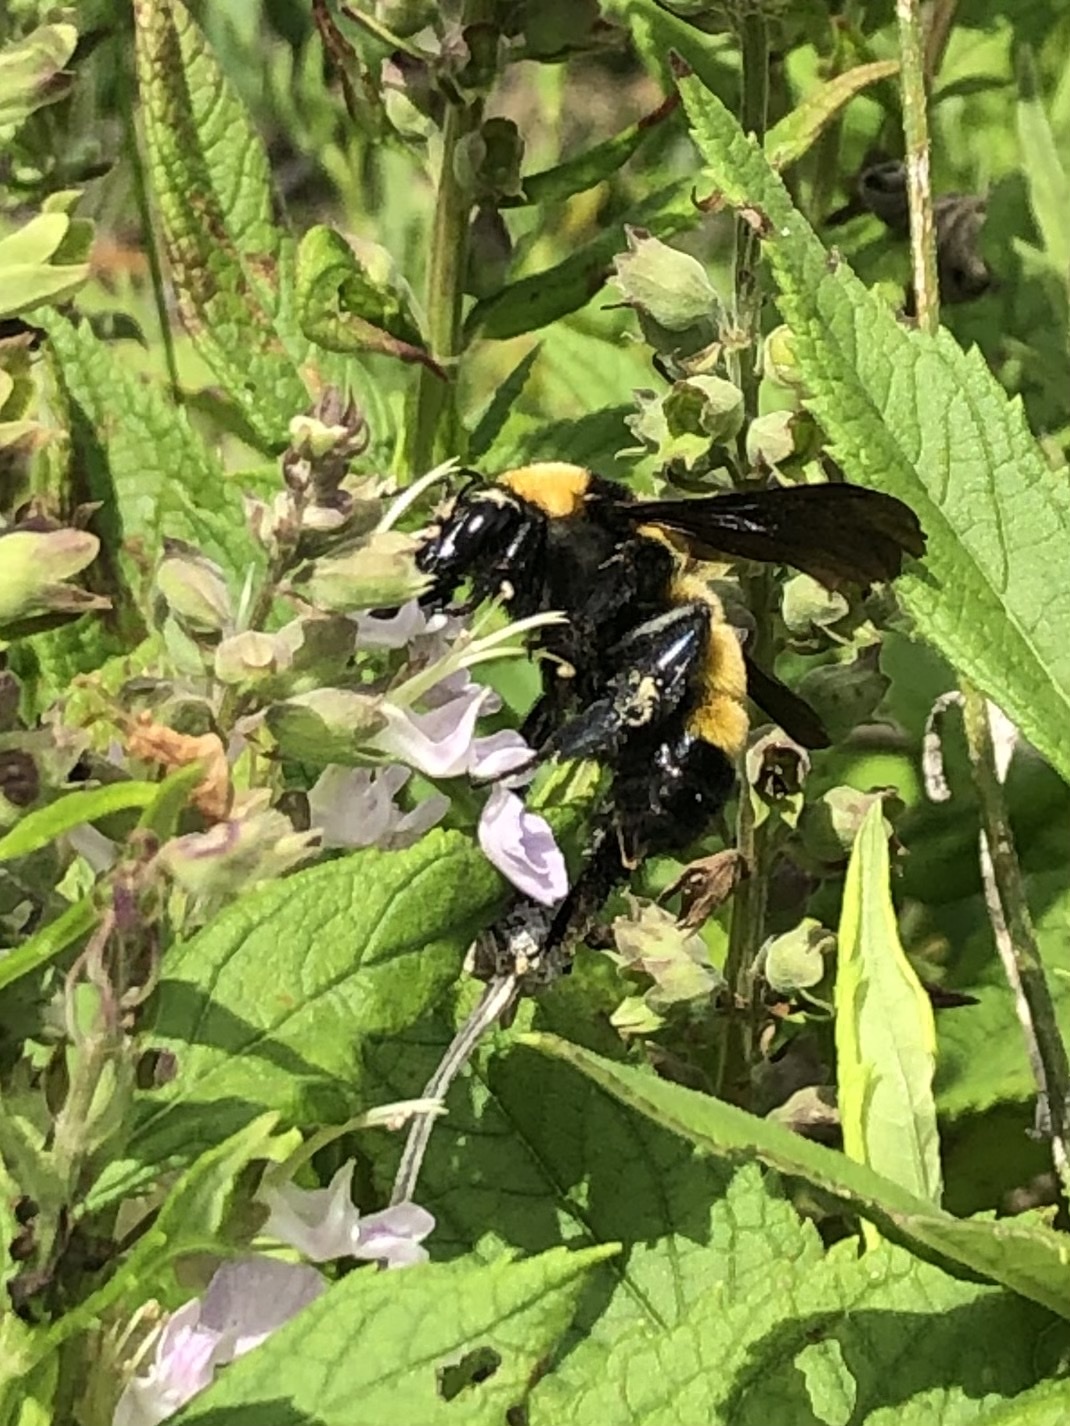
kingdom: Animalia
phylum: Arthropoda
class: Insecta
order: Hymenoptera
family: Apidae
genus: Bombus
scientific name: Bombus sonorus
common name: Sonoran bumble bee
